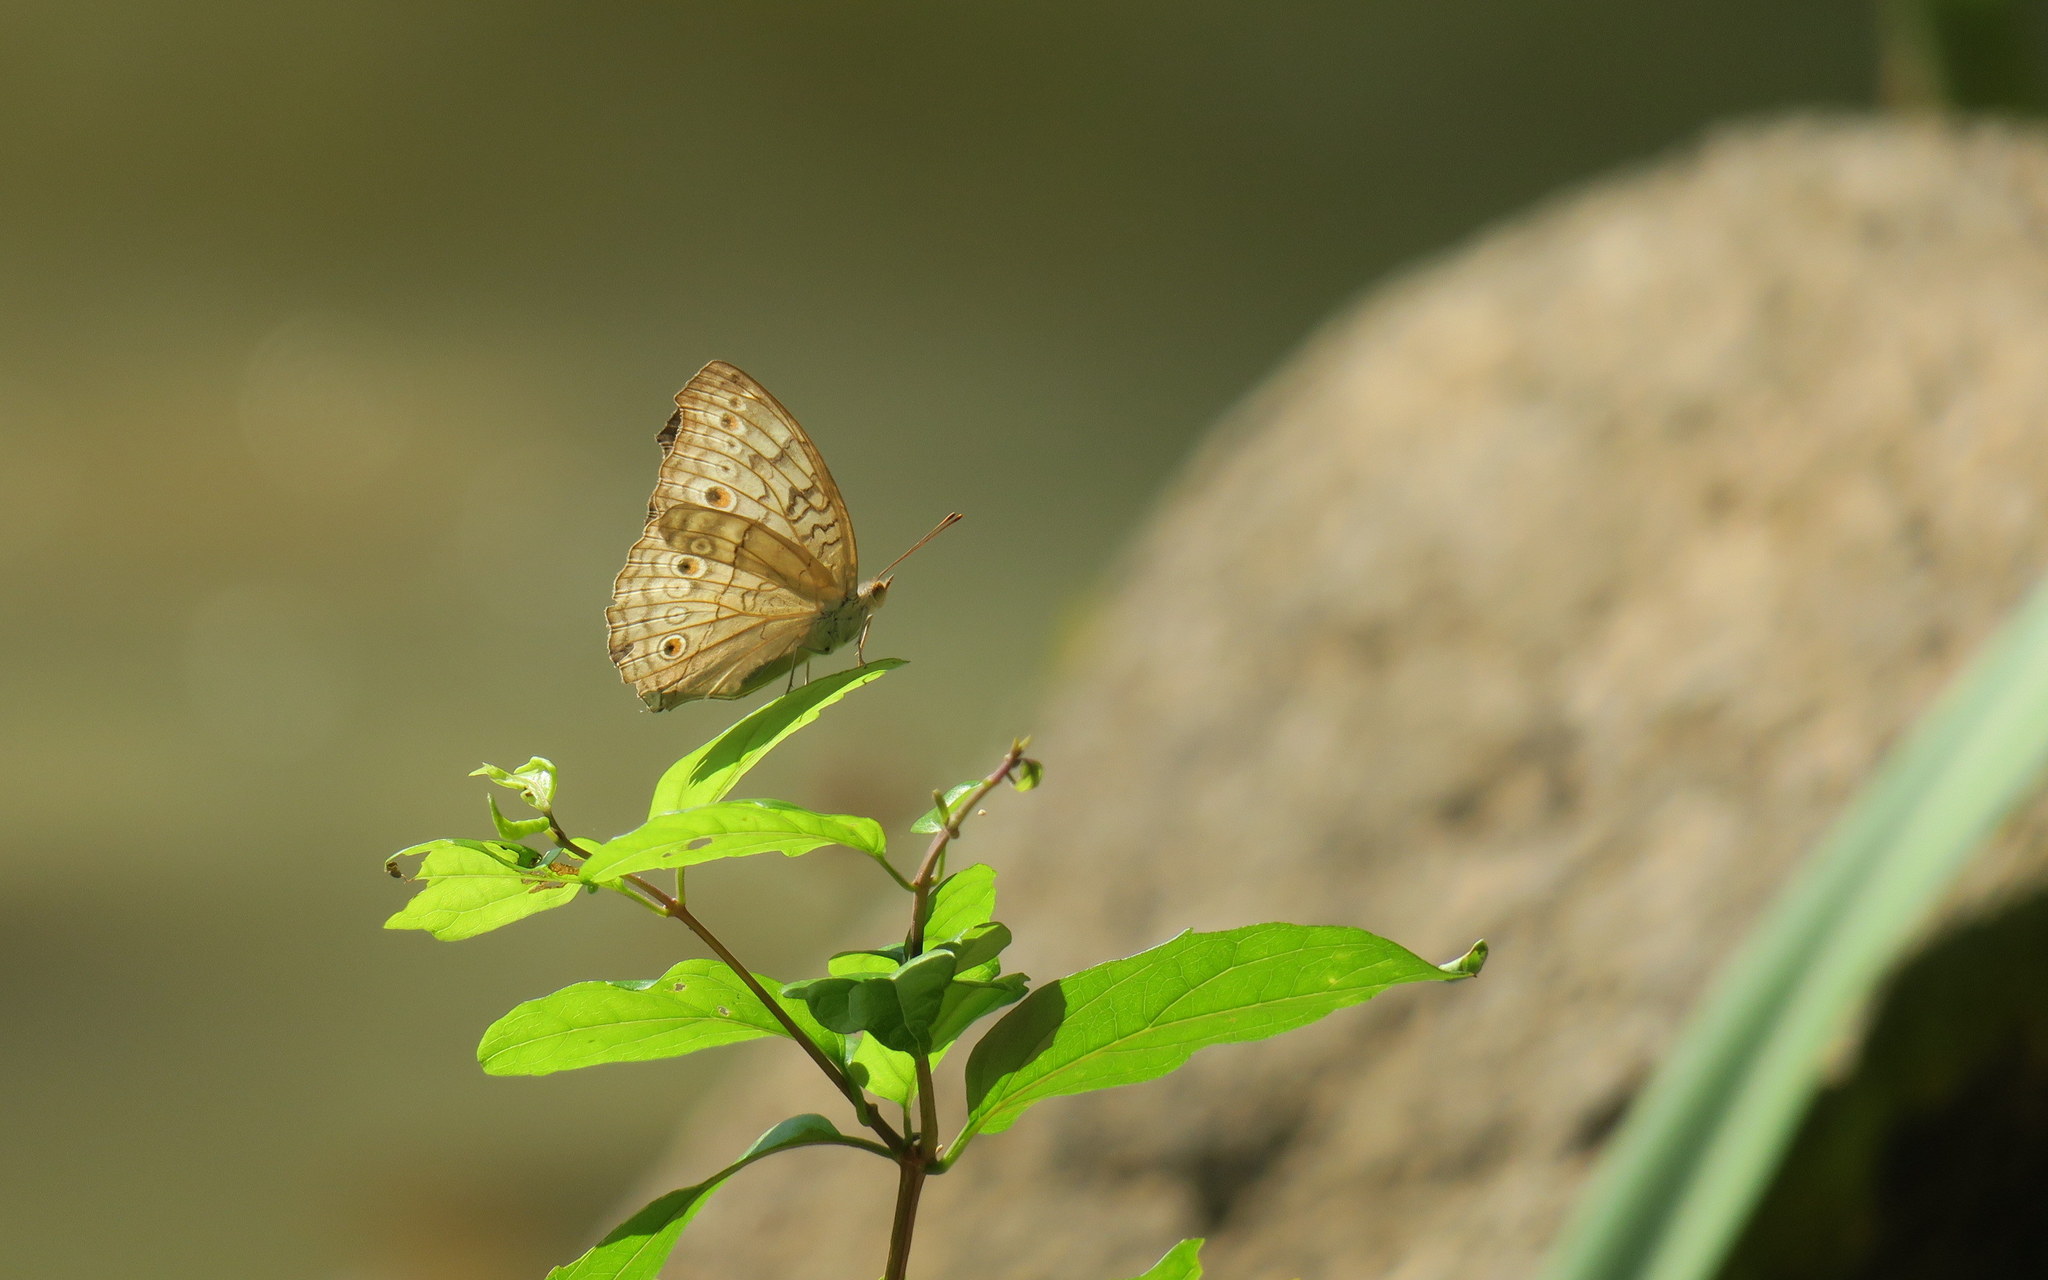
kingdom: Animalia
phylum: Arthropoda
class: Insecta
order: Lepidoptera
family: Nymphalidae
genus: Junonia
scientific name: Junonia atlites
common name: Grey pansy
